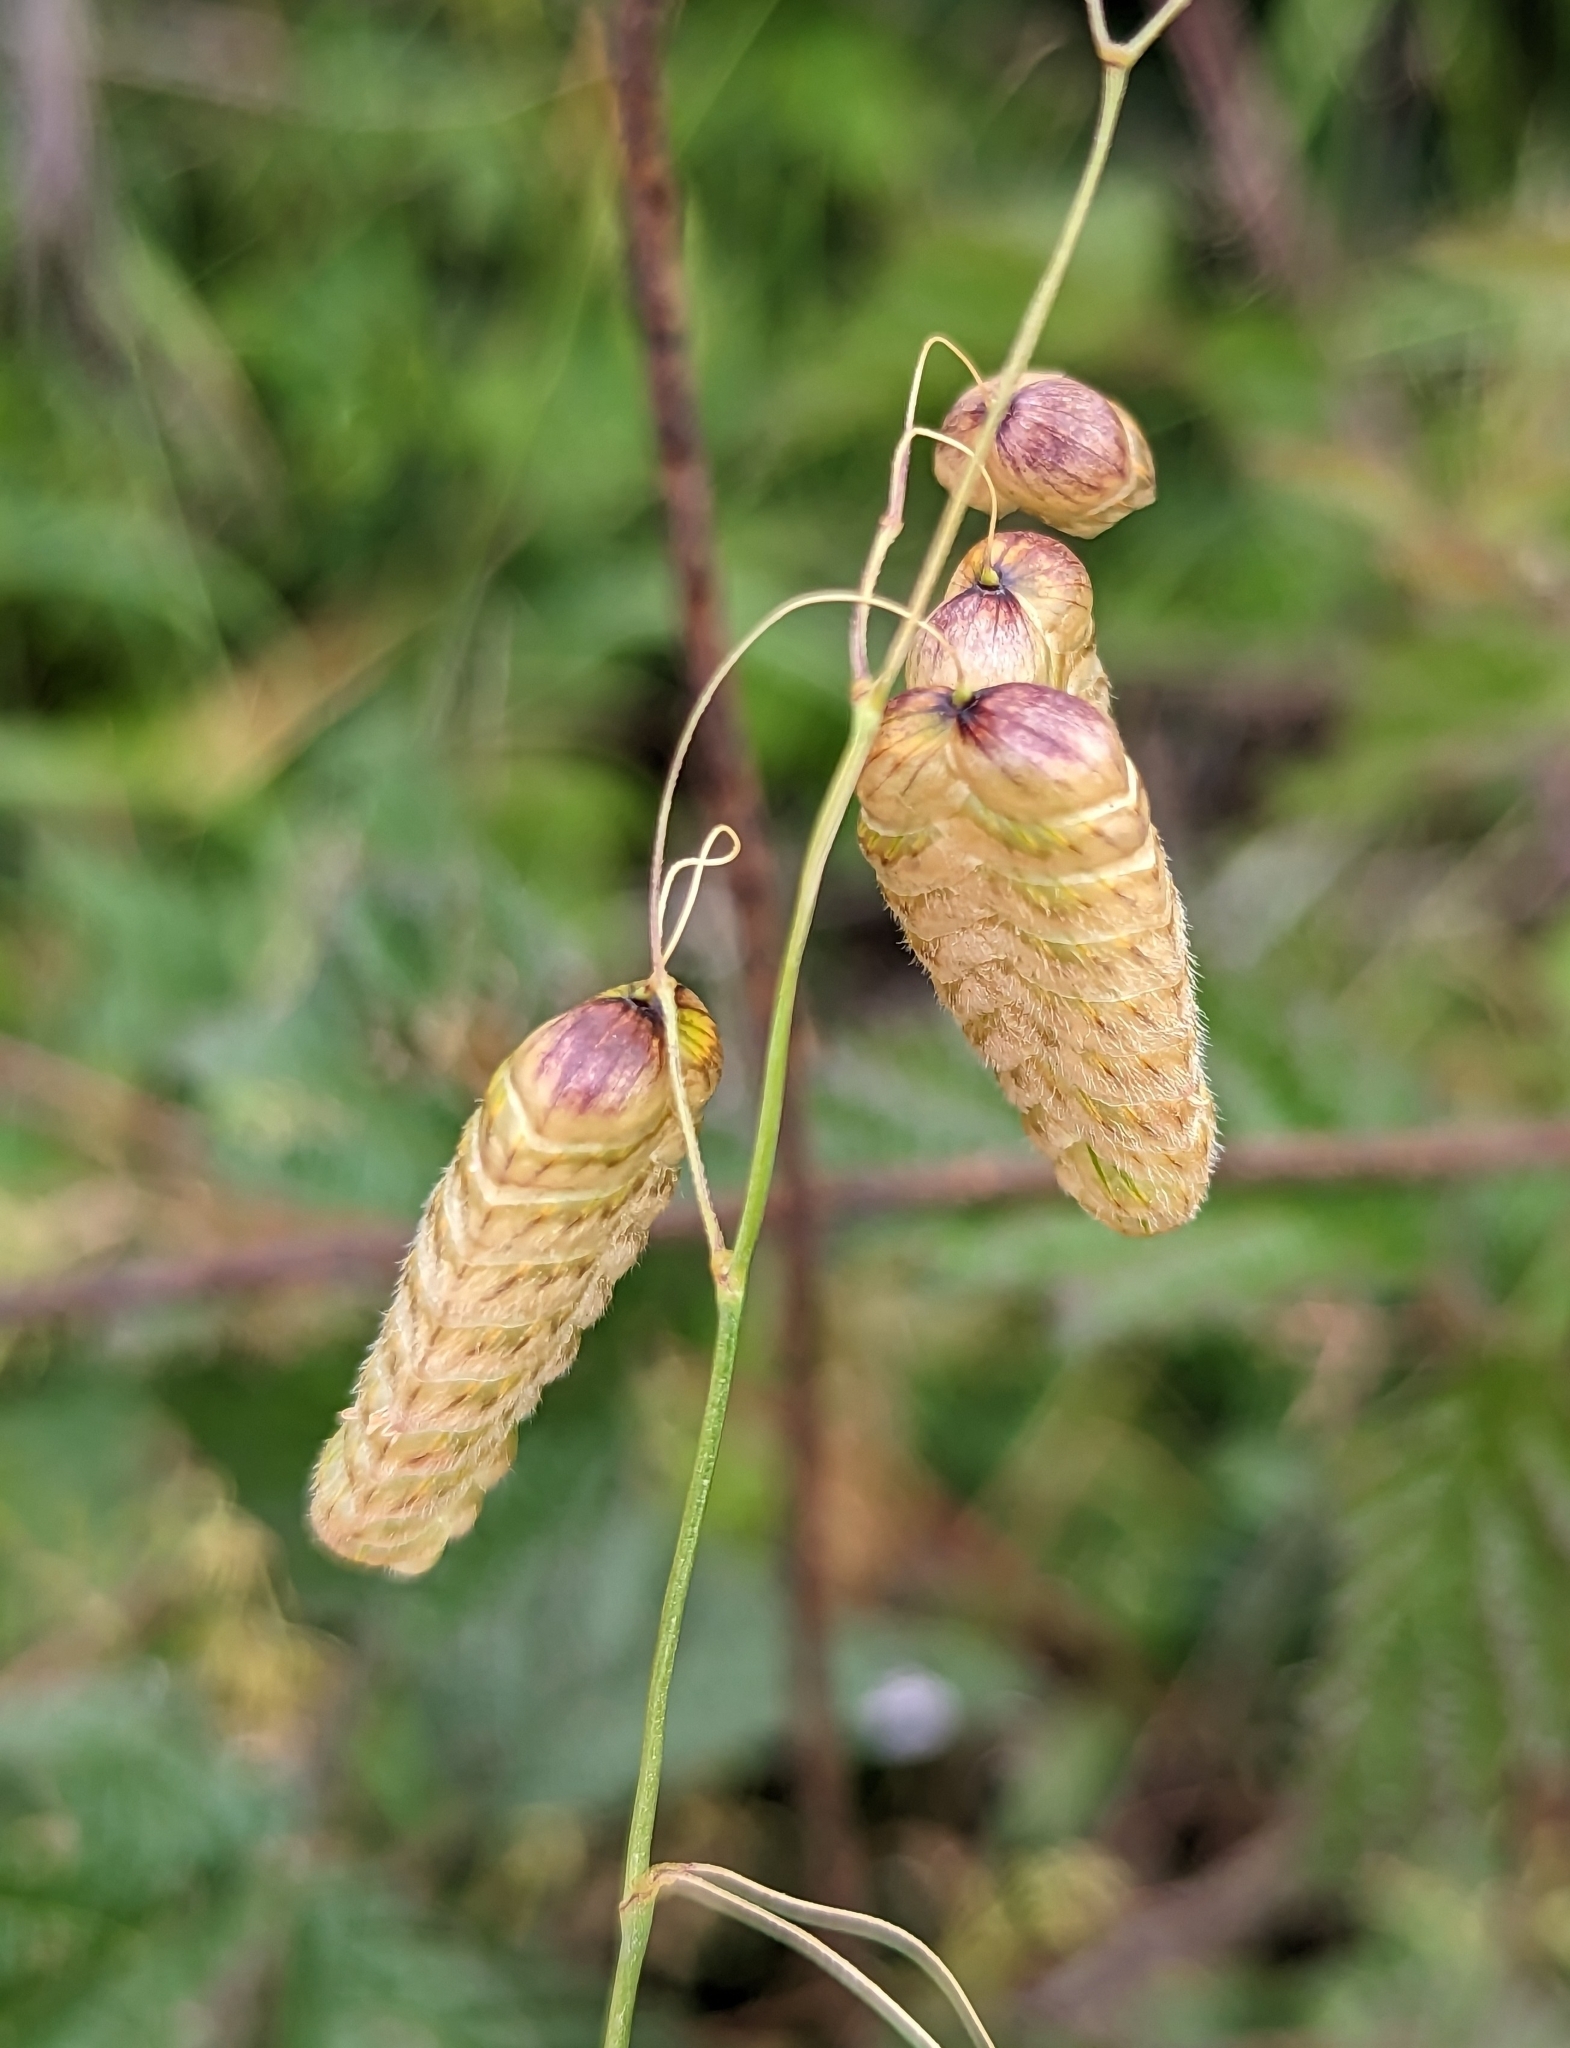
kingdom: Plantae
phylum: Tracheophyta
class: Liliopsida
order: Poales
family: Poaceae
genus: Briza
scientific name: Briza maxima
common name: Big quakinggrass
